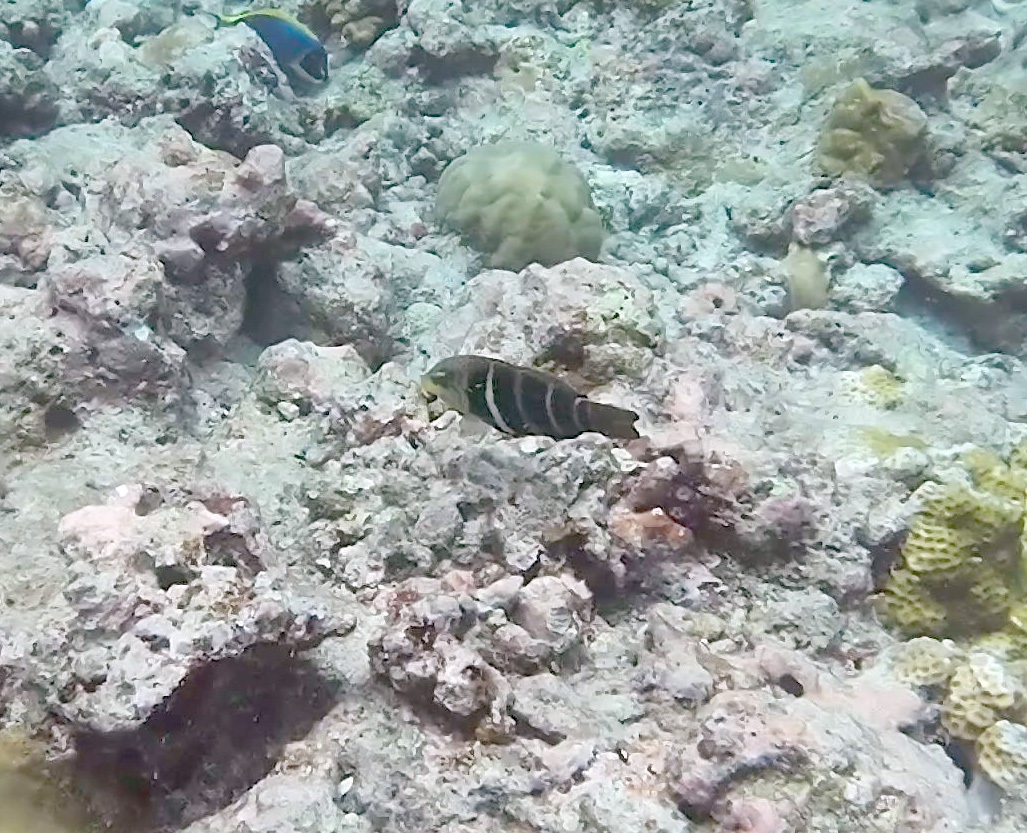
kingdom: Animalia
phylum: Chordata
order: Perciformes
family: Labridae
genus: Hemigymnus
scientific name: Hemigymnus fasciatus
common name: Barred thicklip
